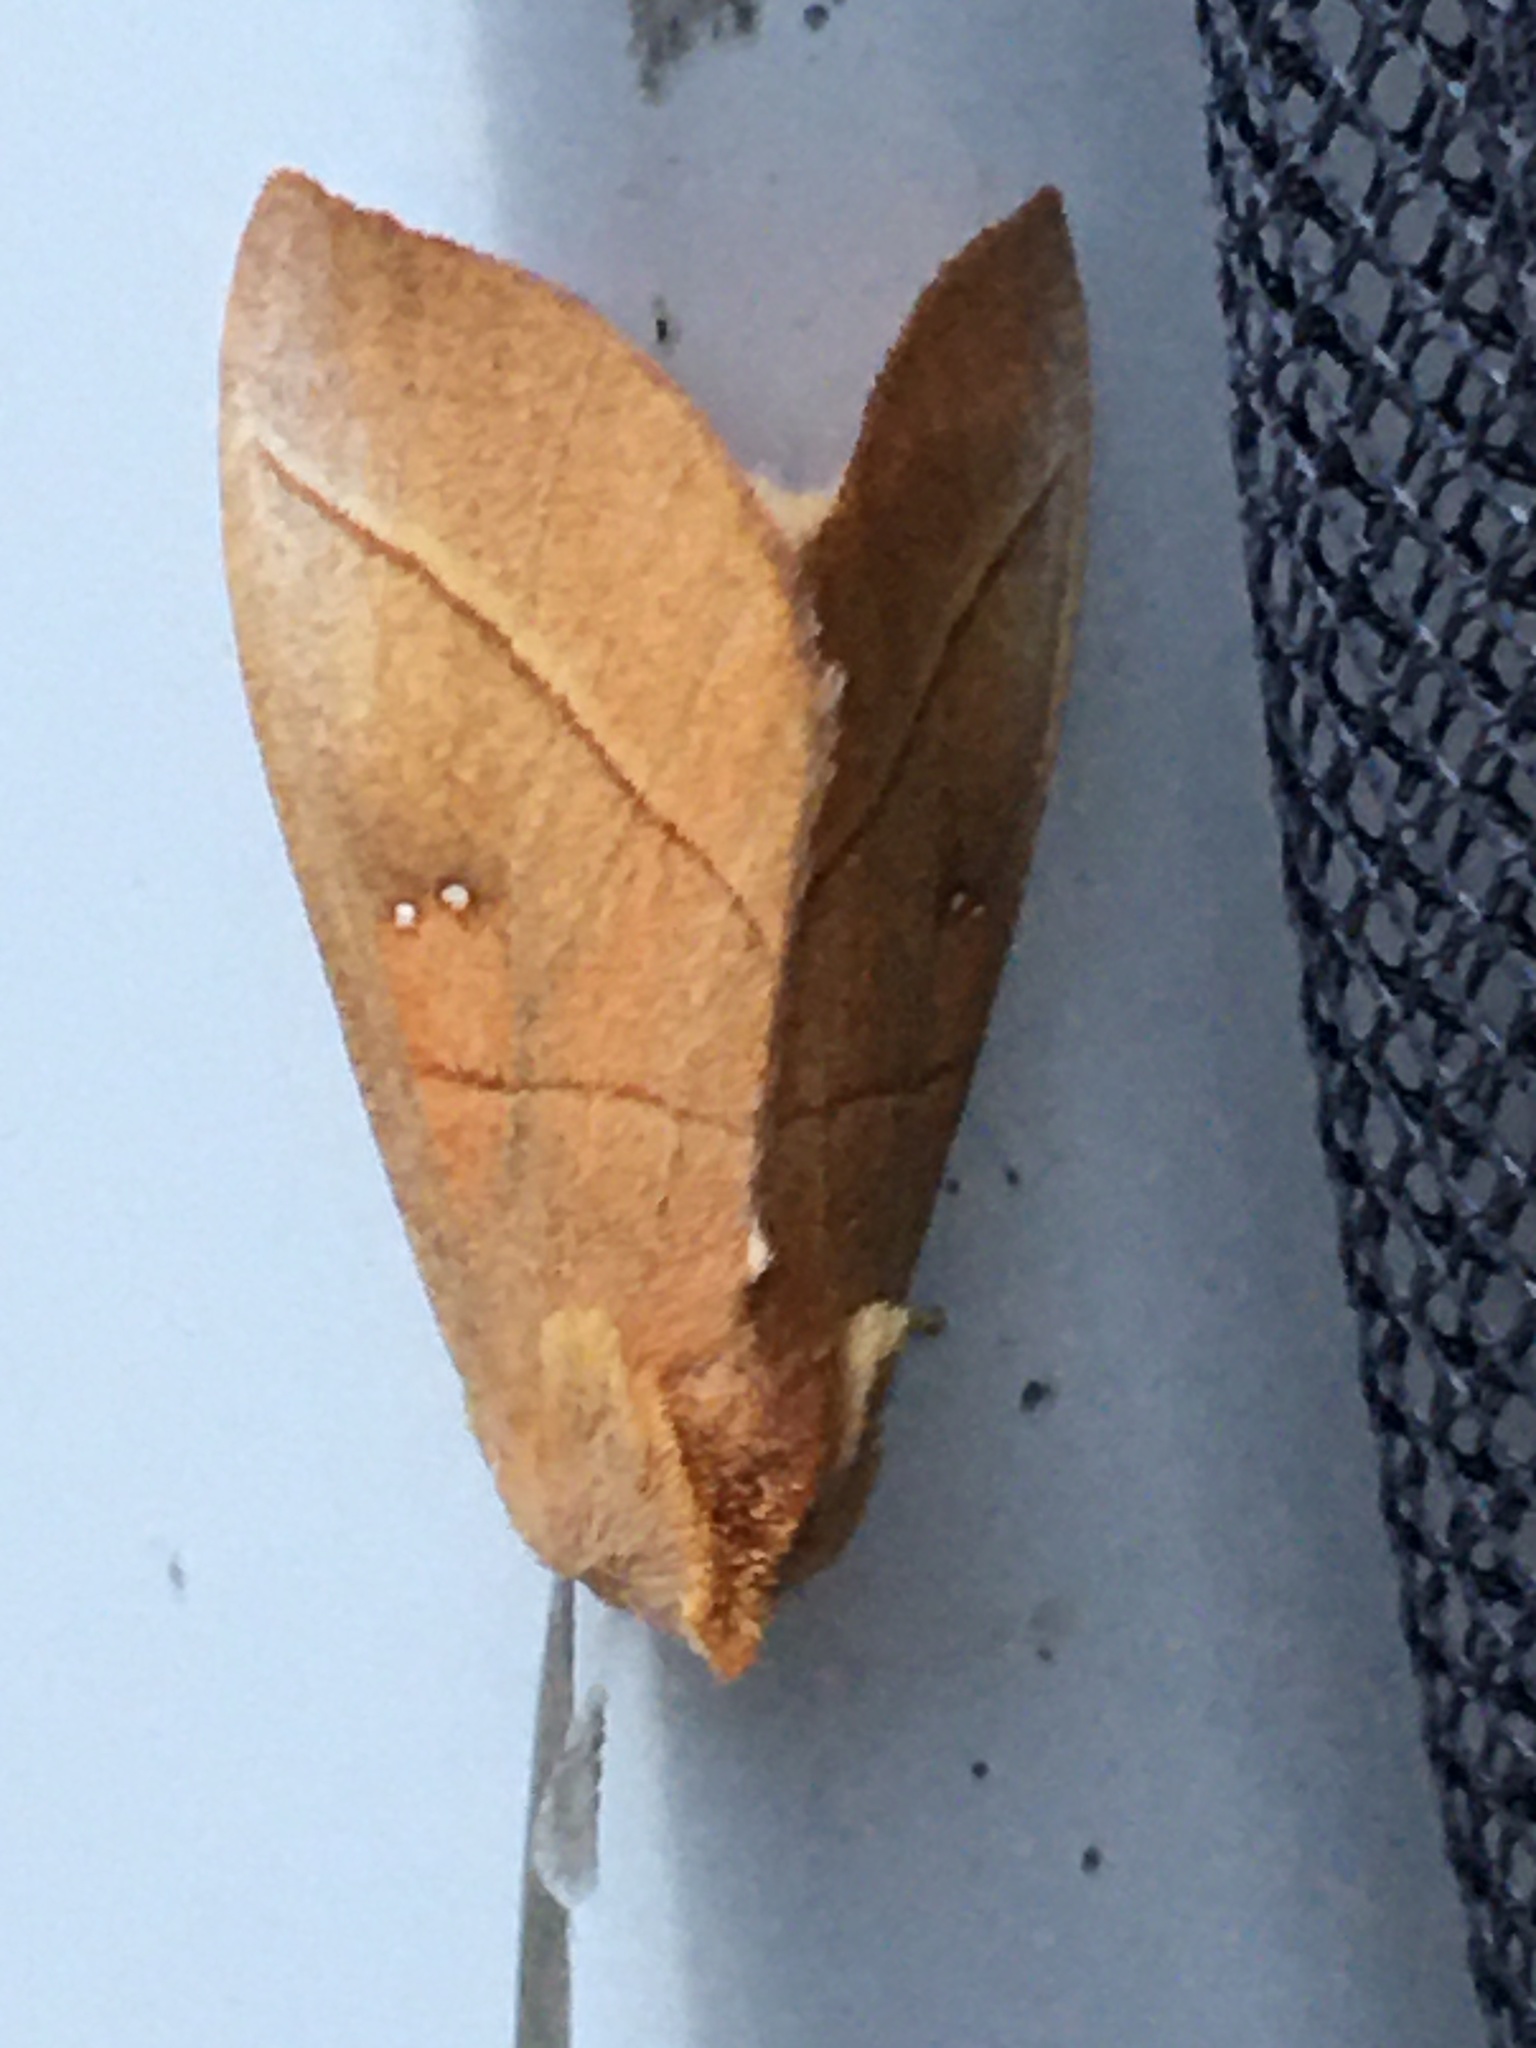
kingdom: Animalia
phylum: Arthropoda
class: Insecta
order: Lepidoptera
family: Notodontidae
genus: Nadata
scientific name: Nadata gibbosa
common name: White-dotted prominent
